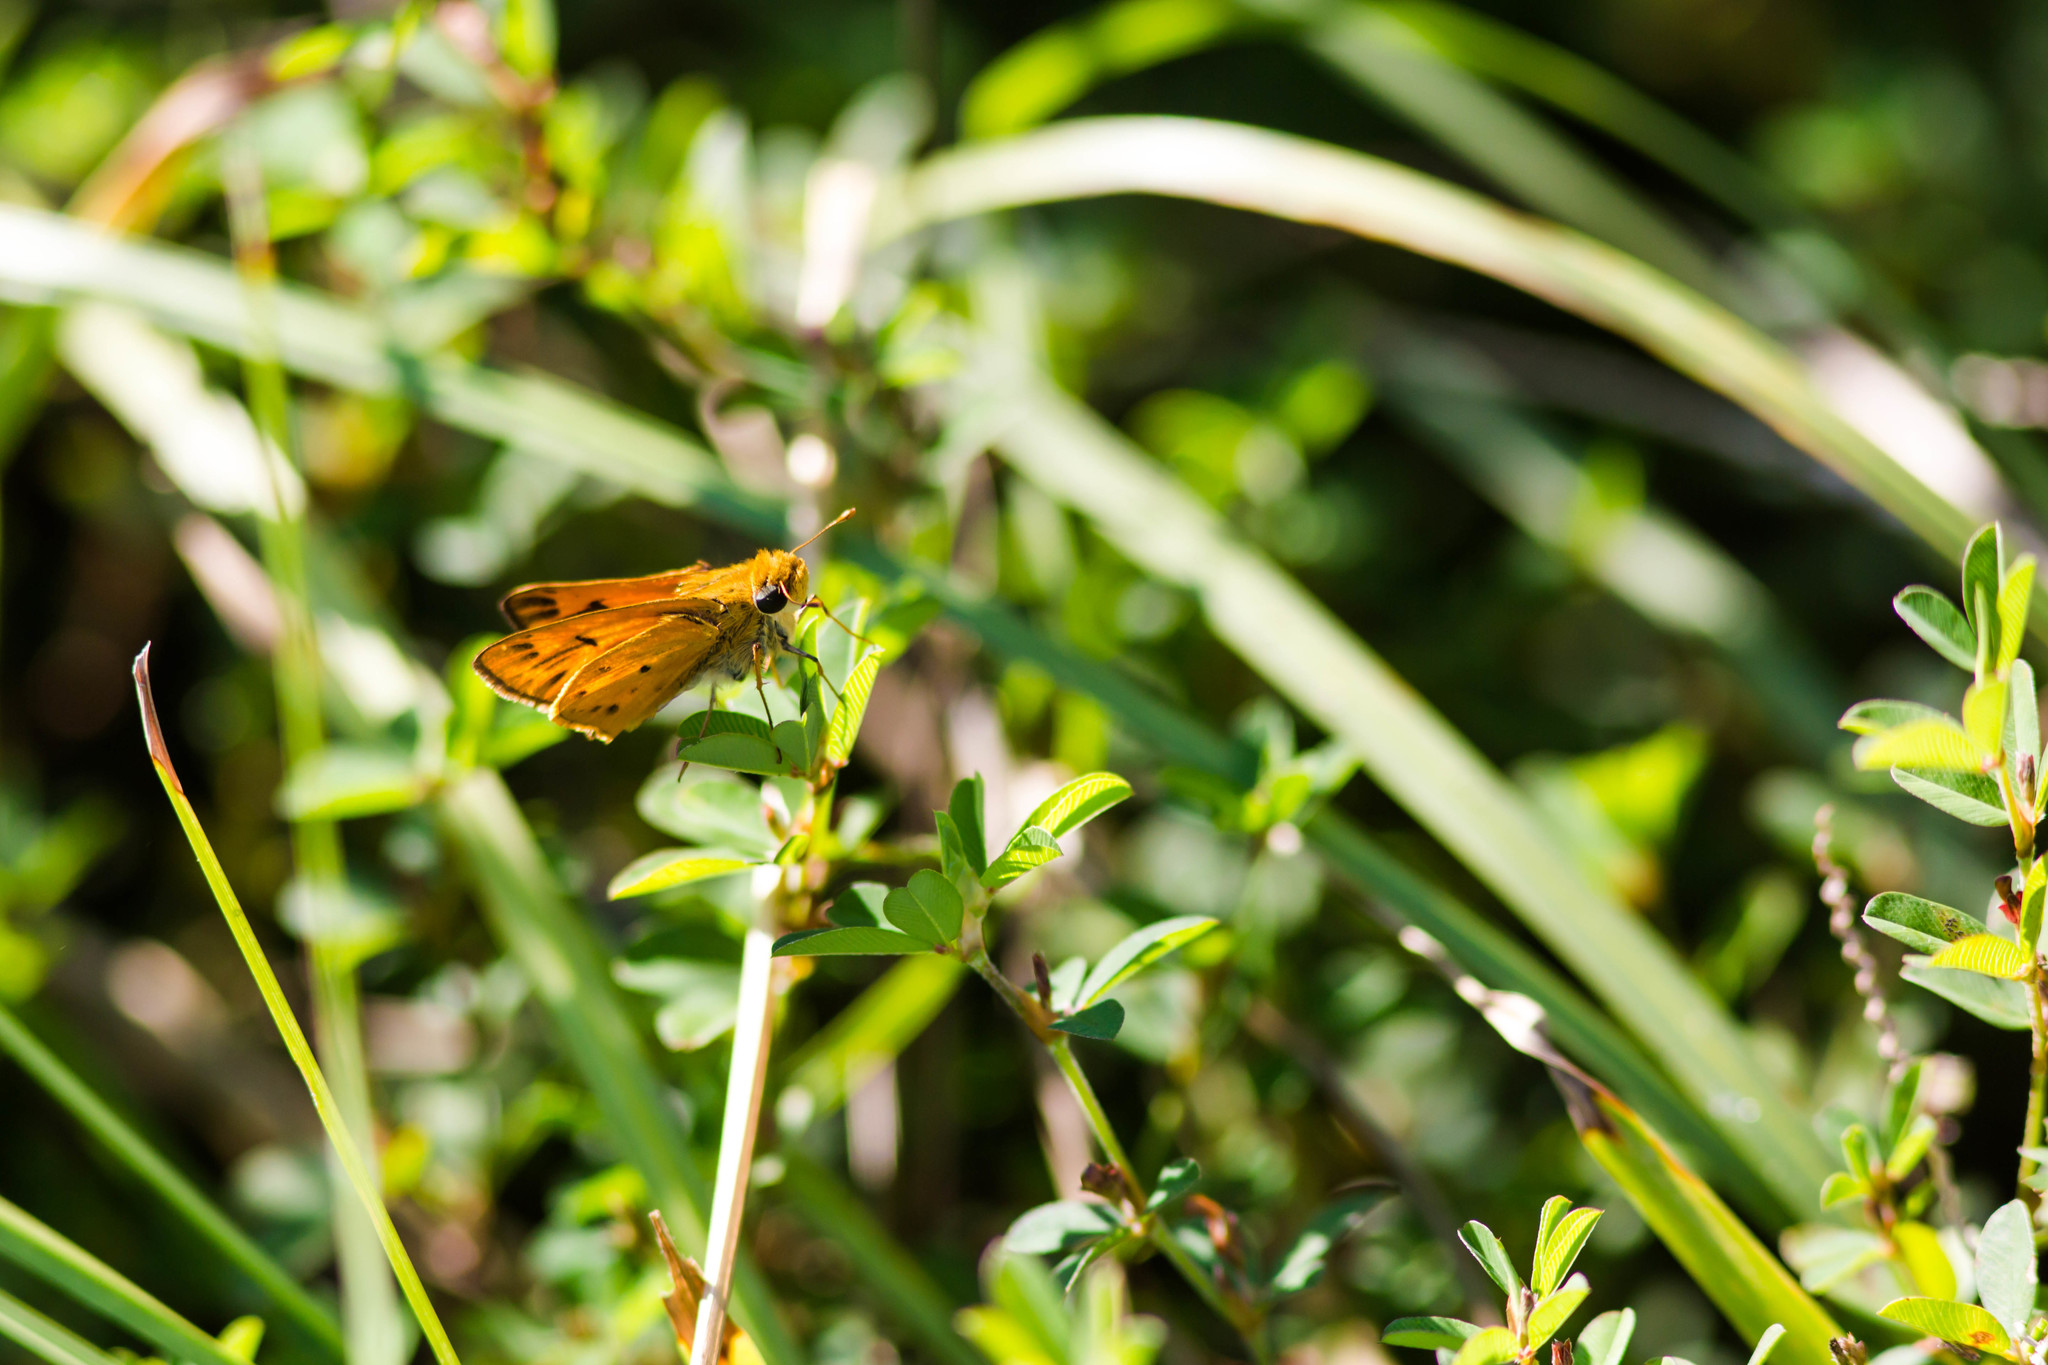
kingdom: Animalia
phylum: Arthropoda
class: Insecta
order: Lepidoptera
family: Hesperiidae
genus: Hylephila
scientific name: Hylephila phyleus
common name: Fiery skipper
